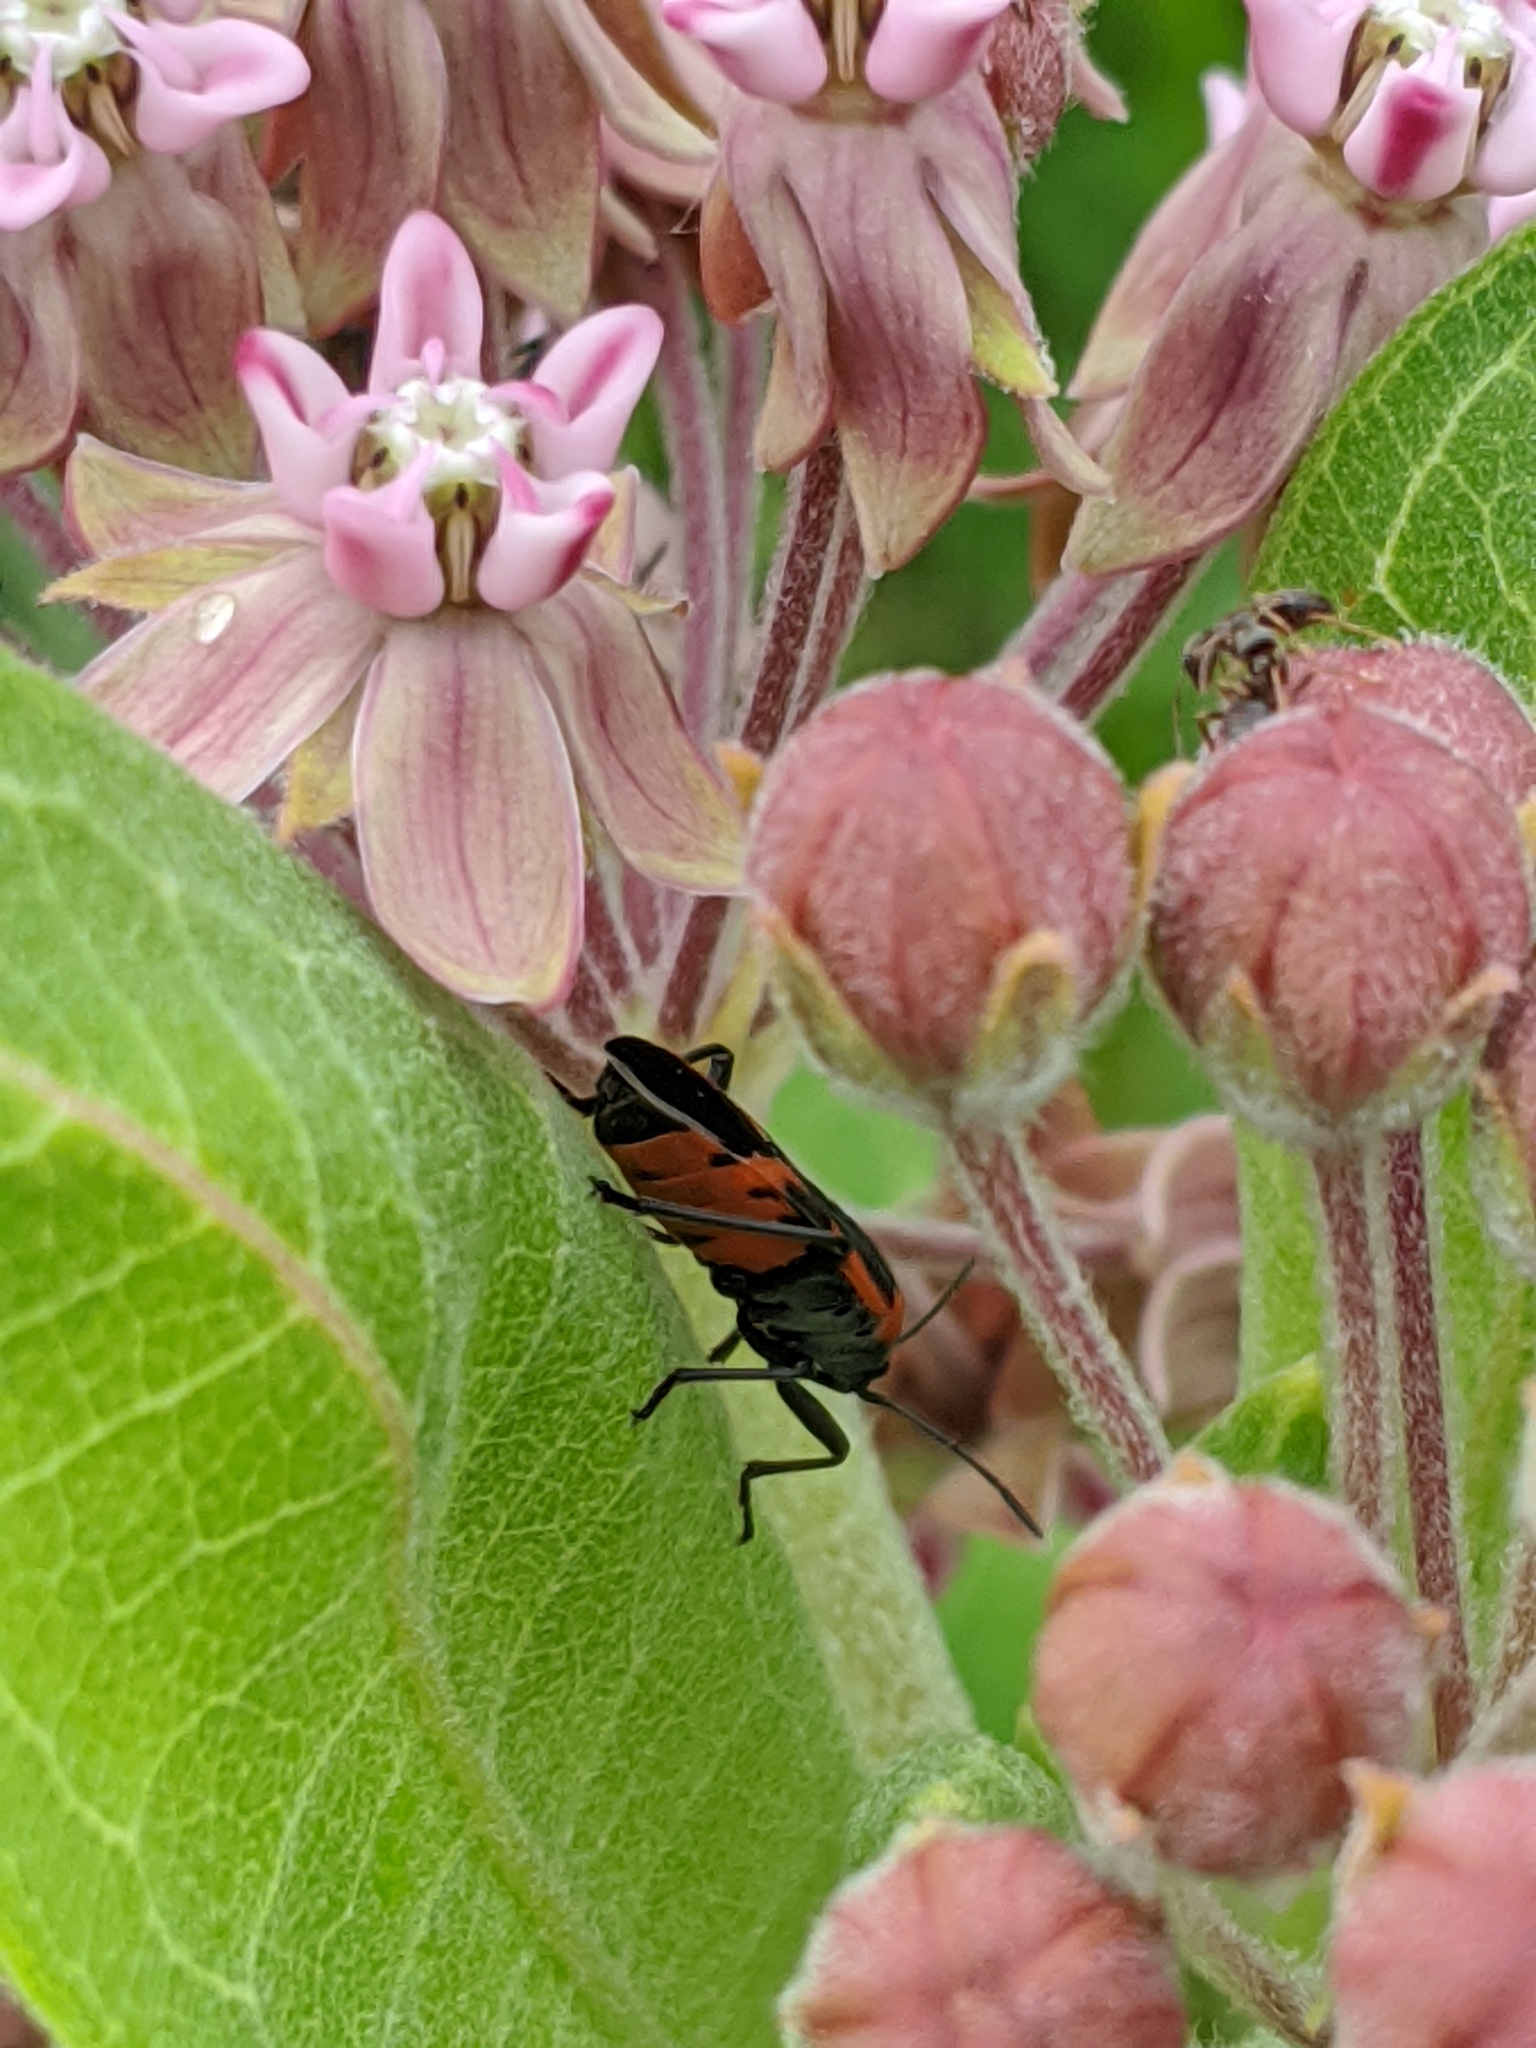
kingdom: Animalia
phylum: Arthropoda
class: Insecta
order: Hemiptera
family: Lygaeidae
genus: Lygaeus
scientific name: Lygaeus kalmii
